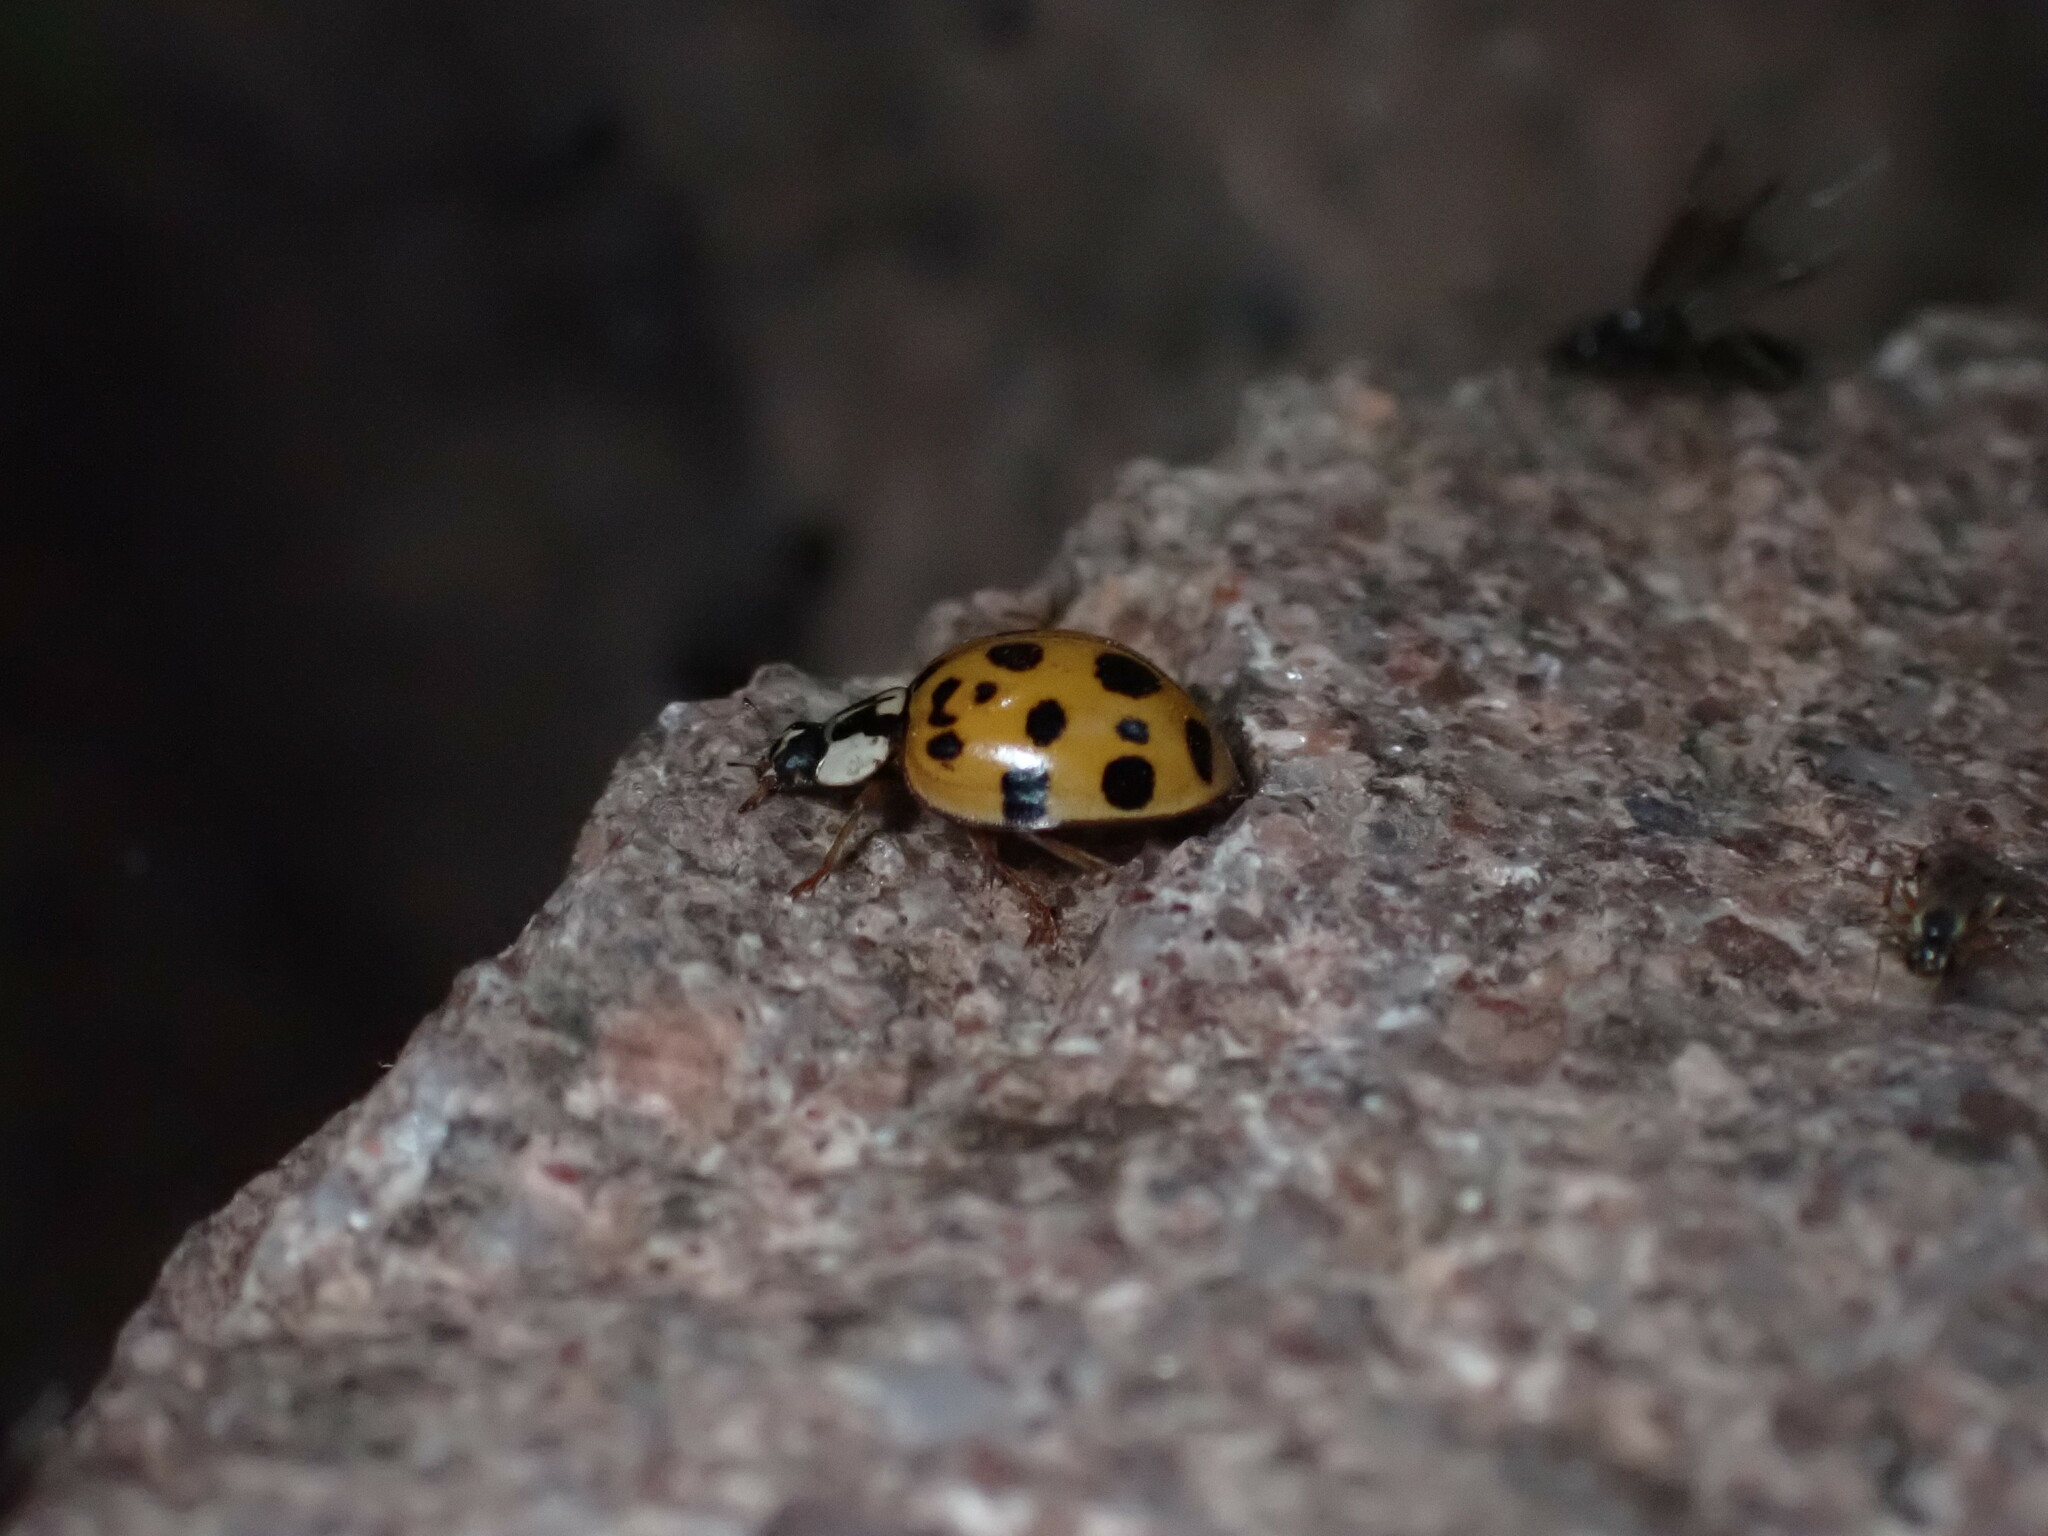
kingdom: Animalia
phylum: Arthropoda
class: Insecta
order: Coleoptera
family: Coccinellidae
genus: Harmonia
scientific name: Harmonia axyridis
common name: Harlequin ladybird
